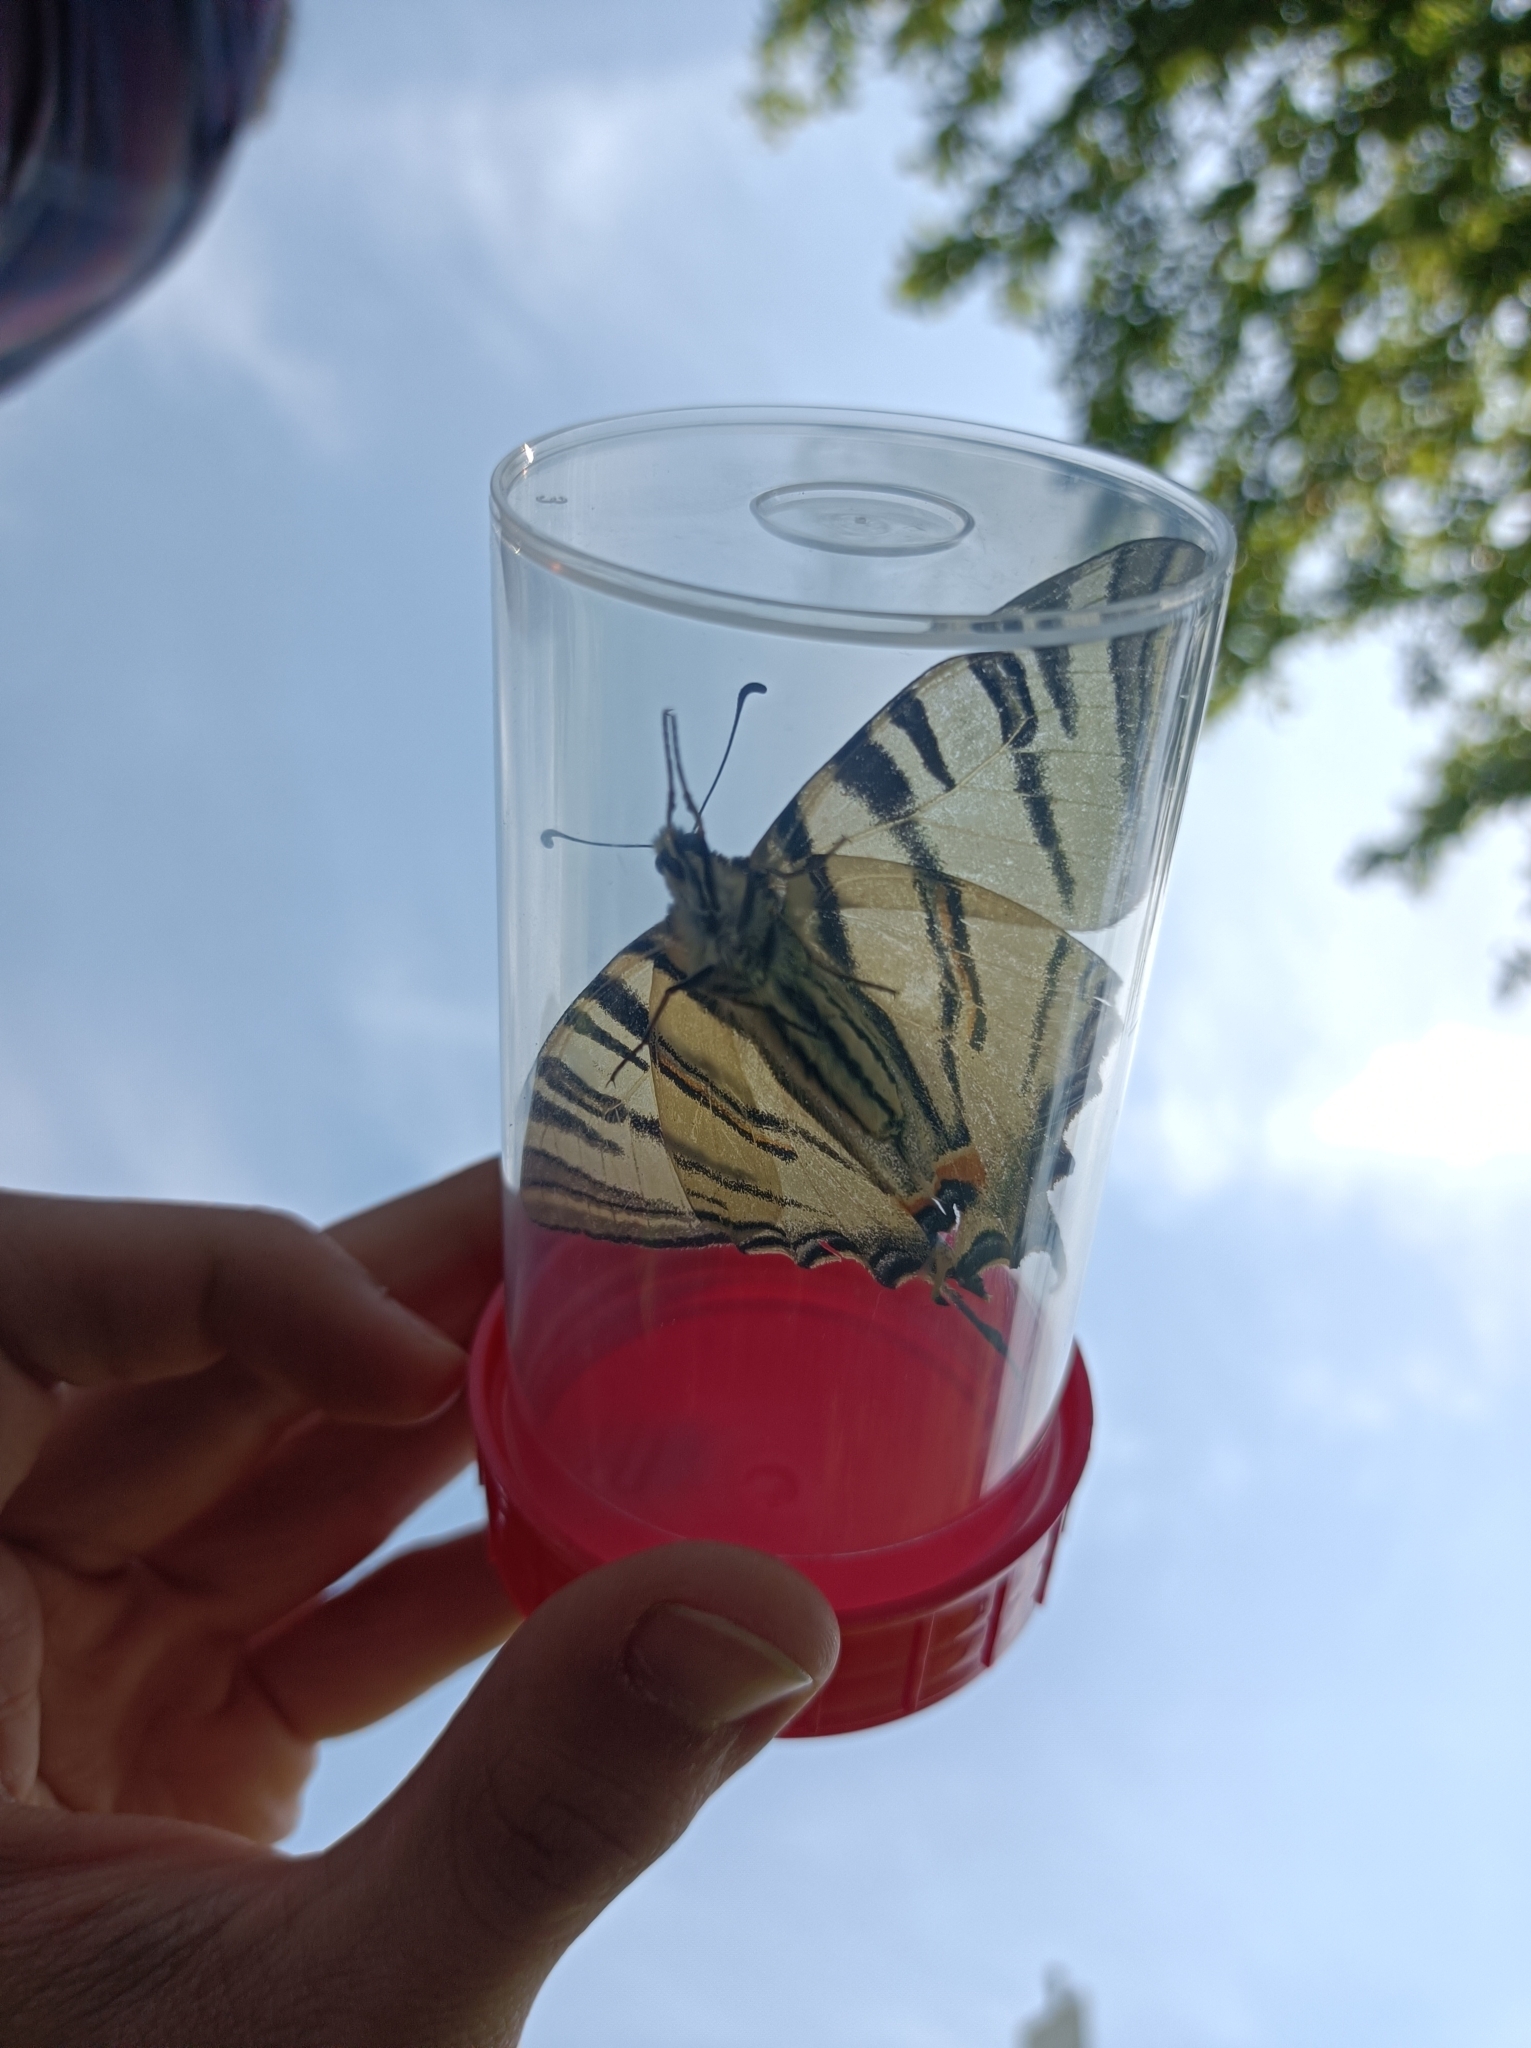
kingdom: Animalia
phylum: Arthropoda
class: Insecta
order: Lepidoptera
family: Papilionidae
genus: Iphiclides
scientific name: Iphiclides podalirius
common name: Scarce swallowtail
